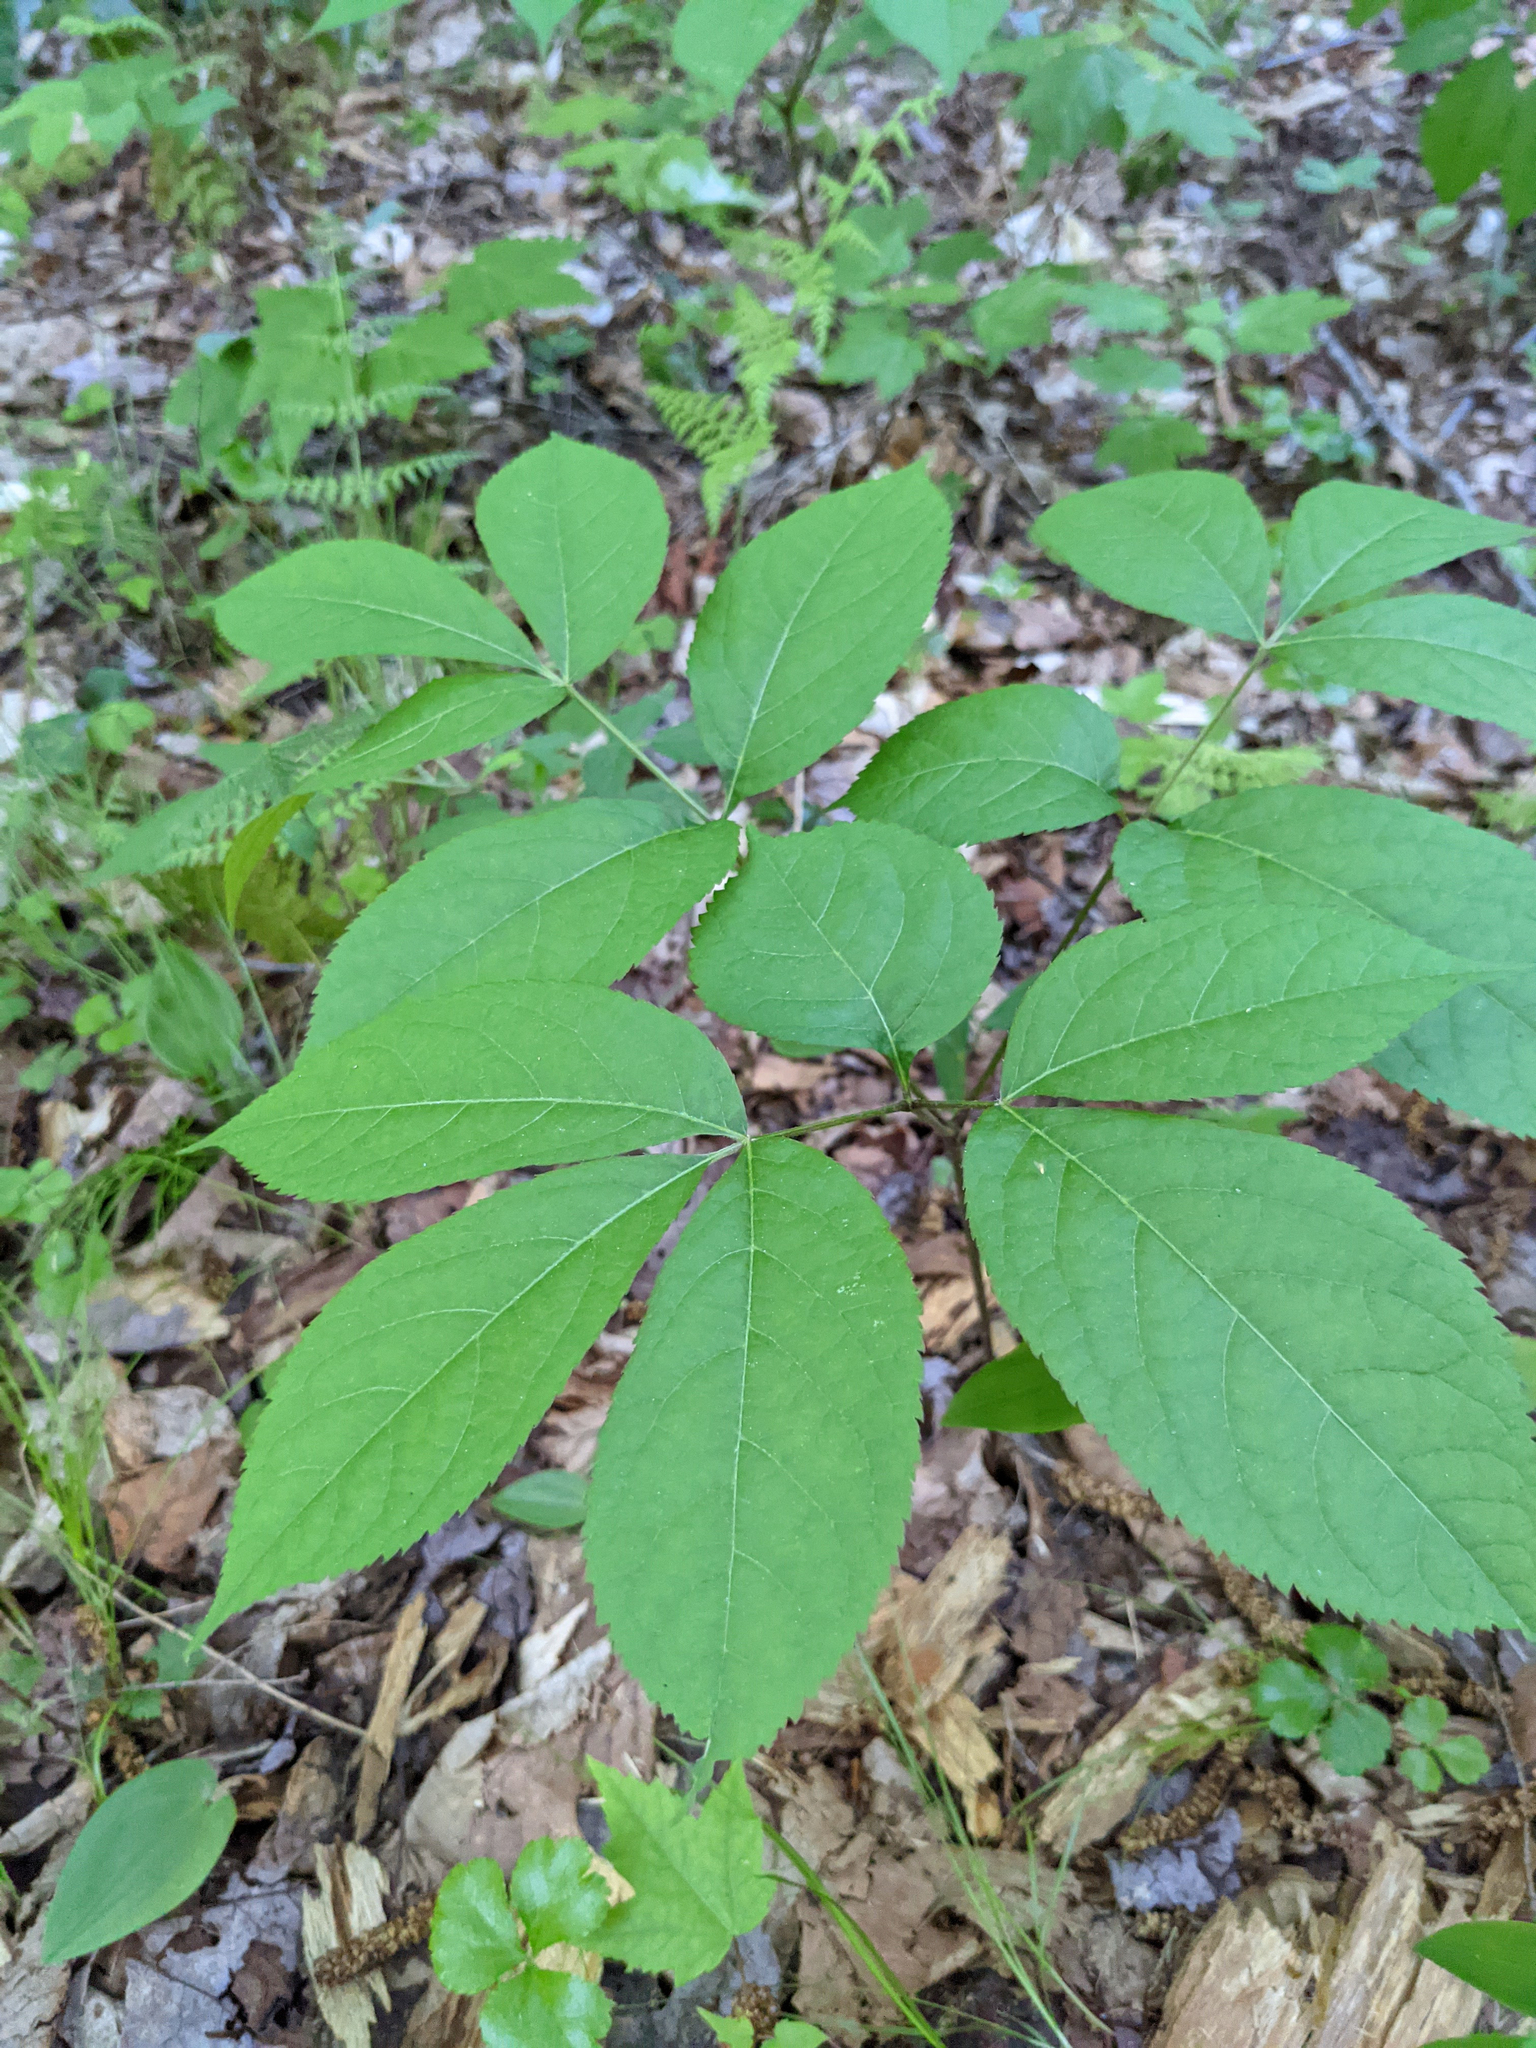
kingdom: Plantae
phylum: Tracheophyta
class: Magnoliopsida
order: Apiales
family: Araliaceae
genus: Aralia
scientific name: Aralia nudicaulis
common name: Wild sarsaparilla
